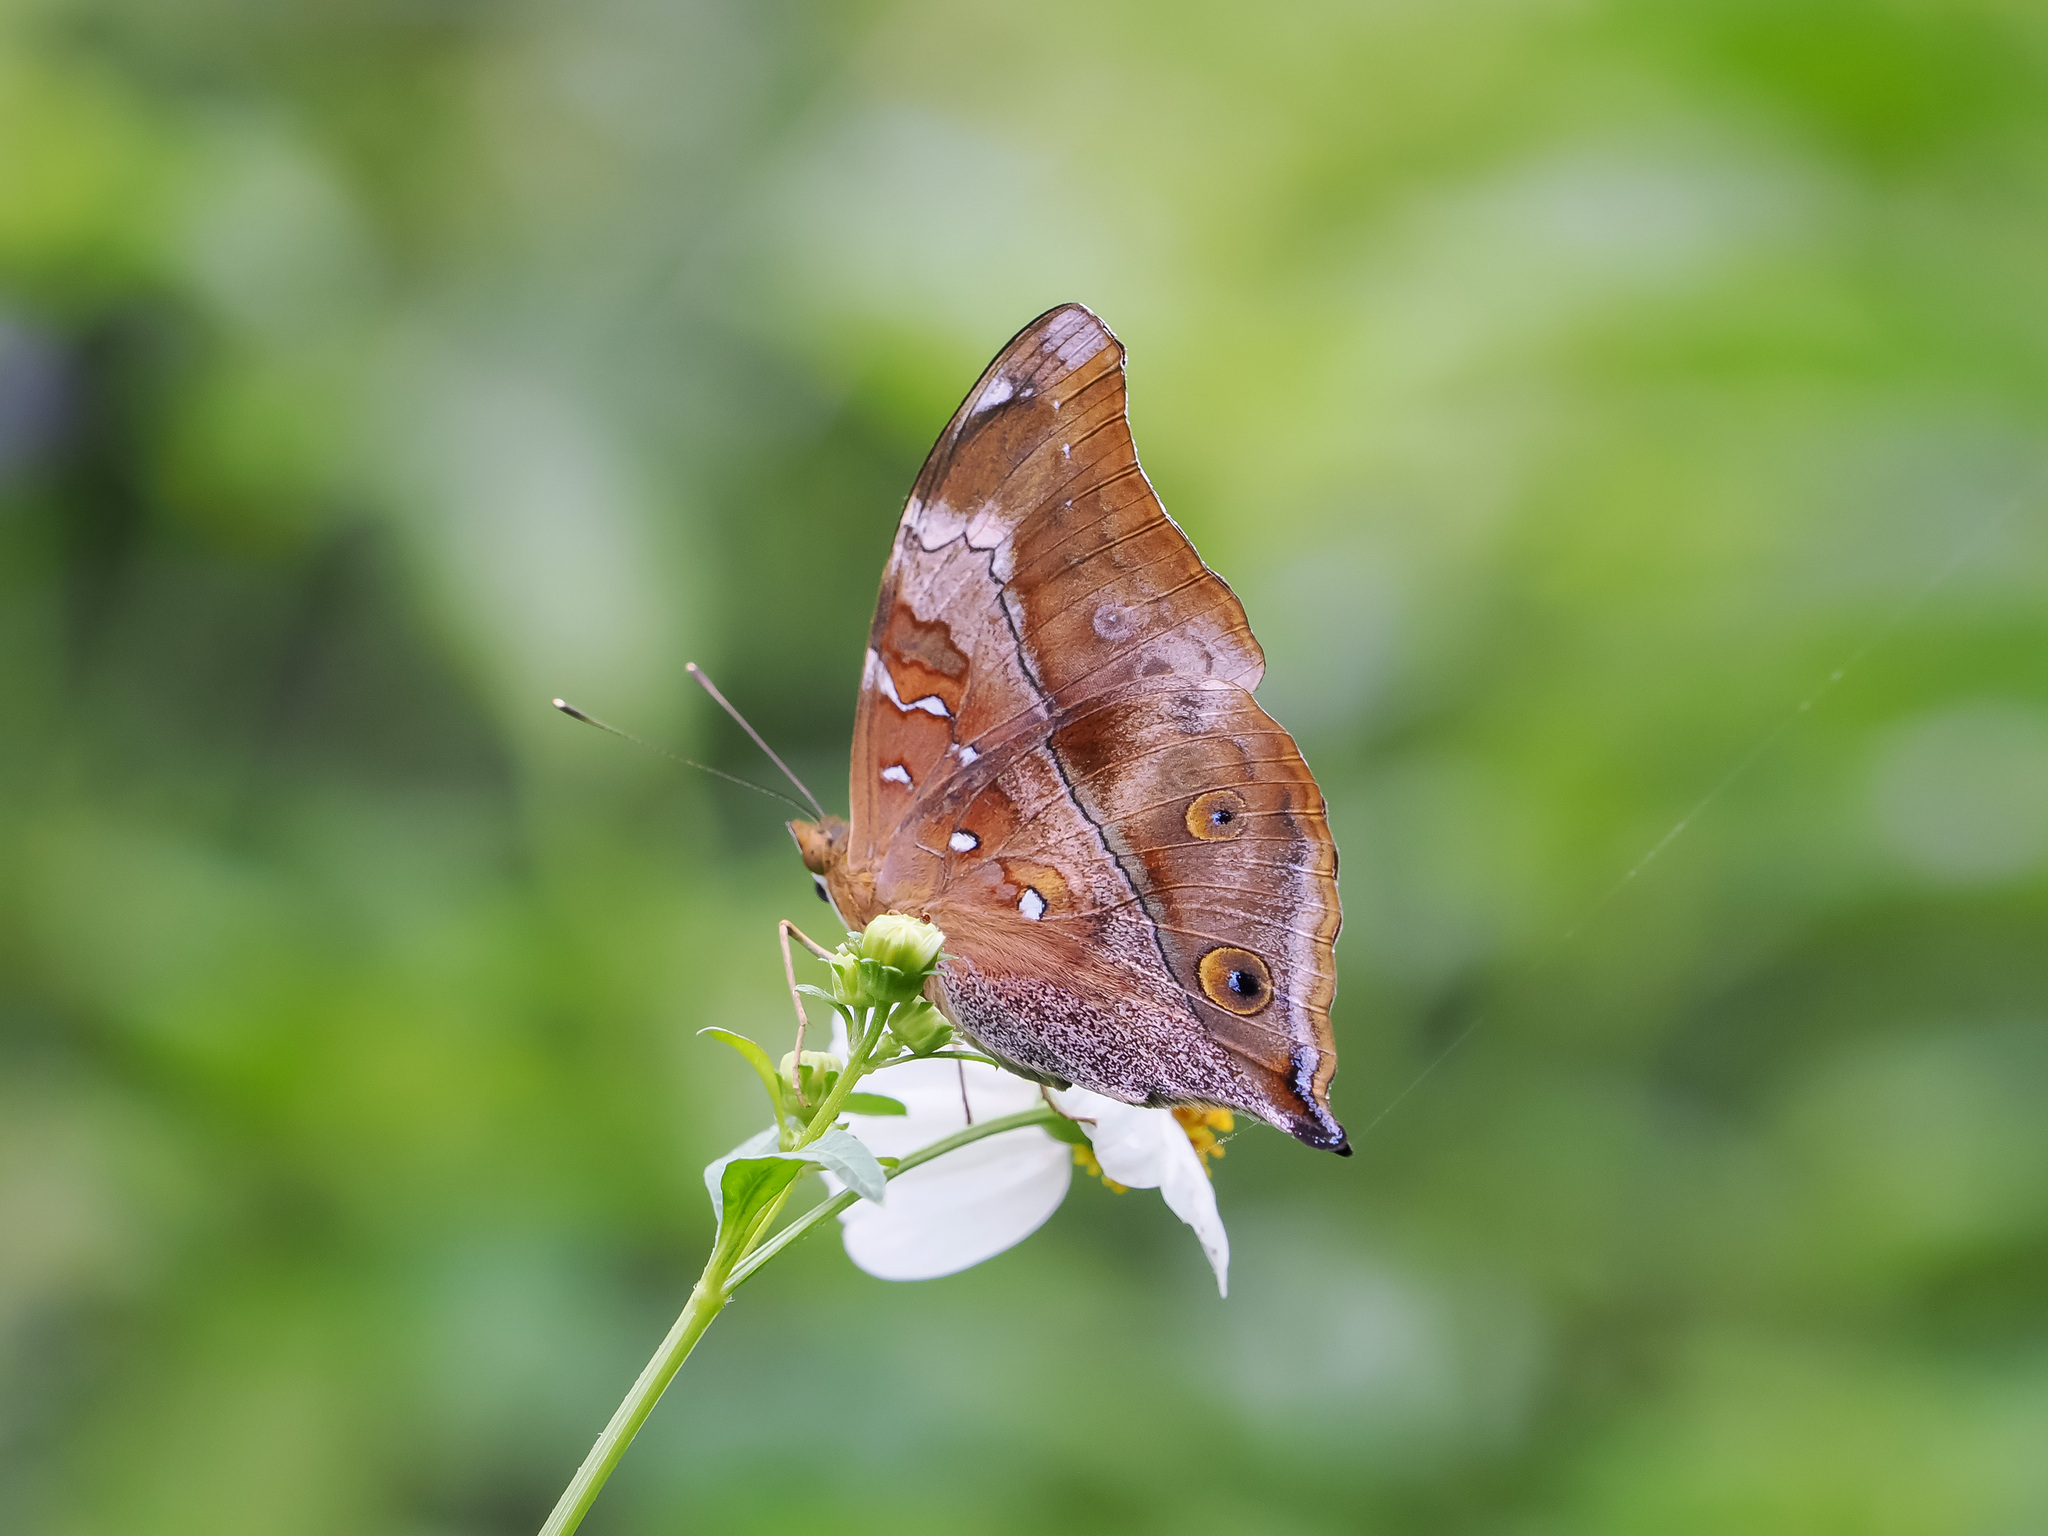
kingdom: Animalia
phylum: Arthropoda
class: Insecta
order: Lepidoptera
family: Nymphalidae
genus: Doleschallia
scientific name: Doleschallia bisaltide
